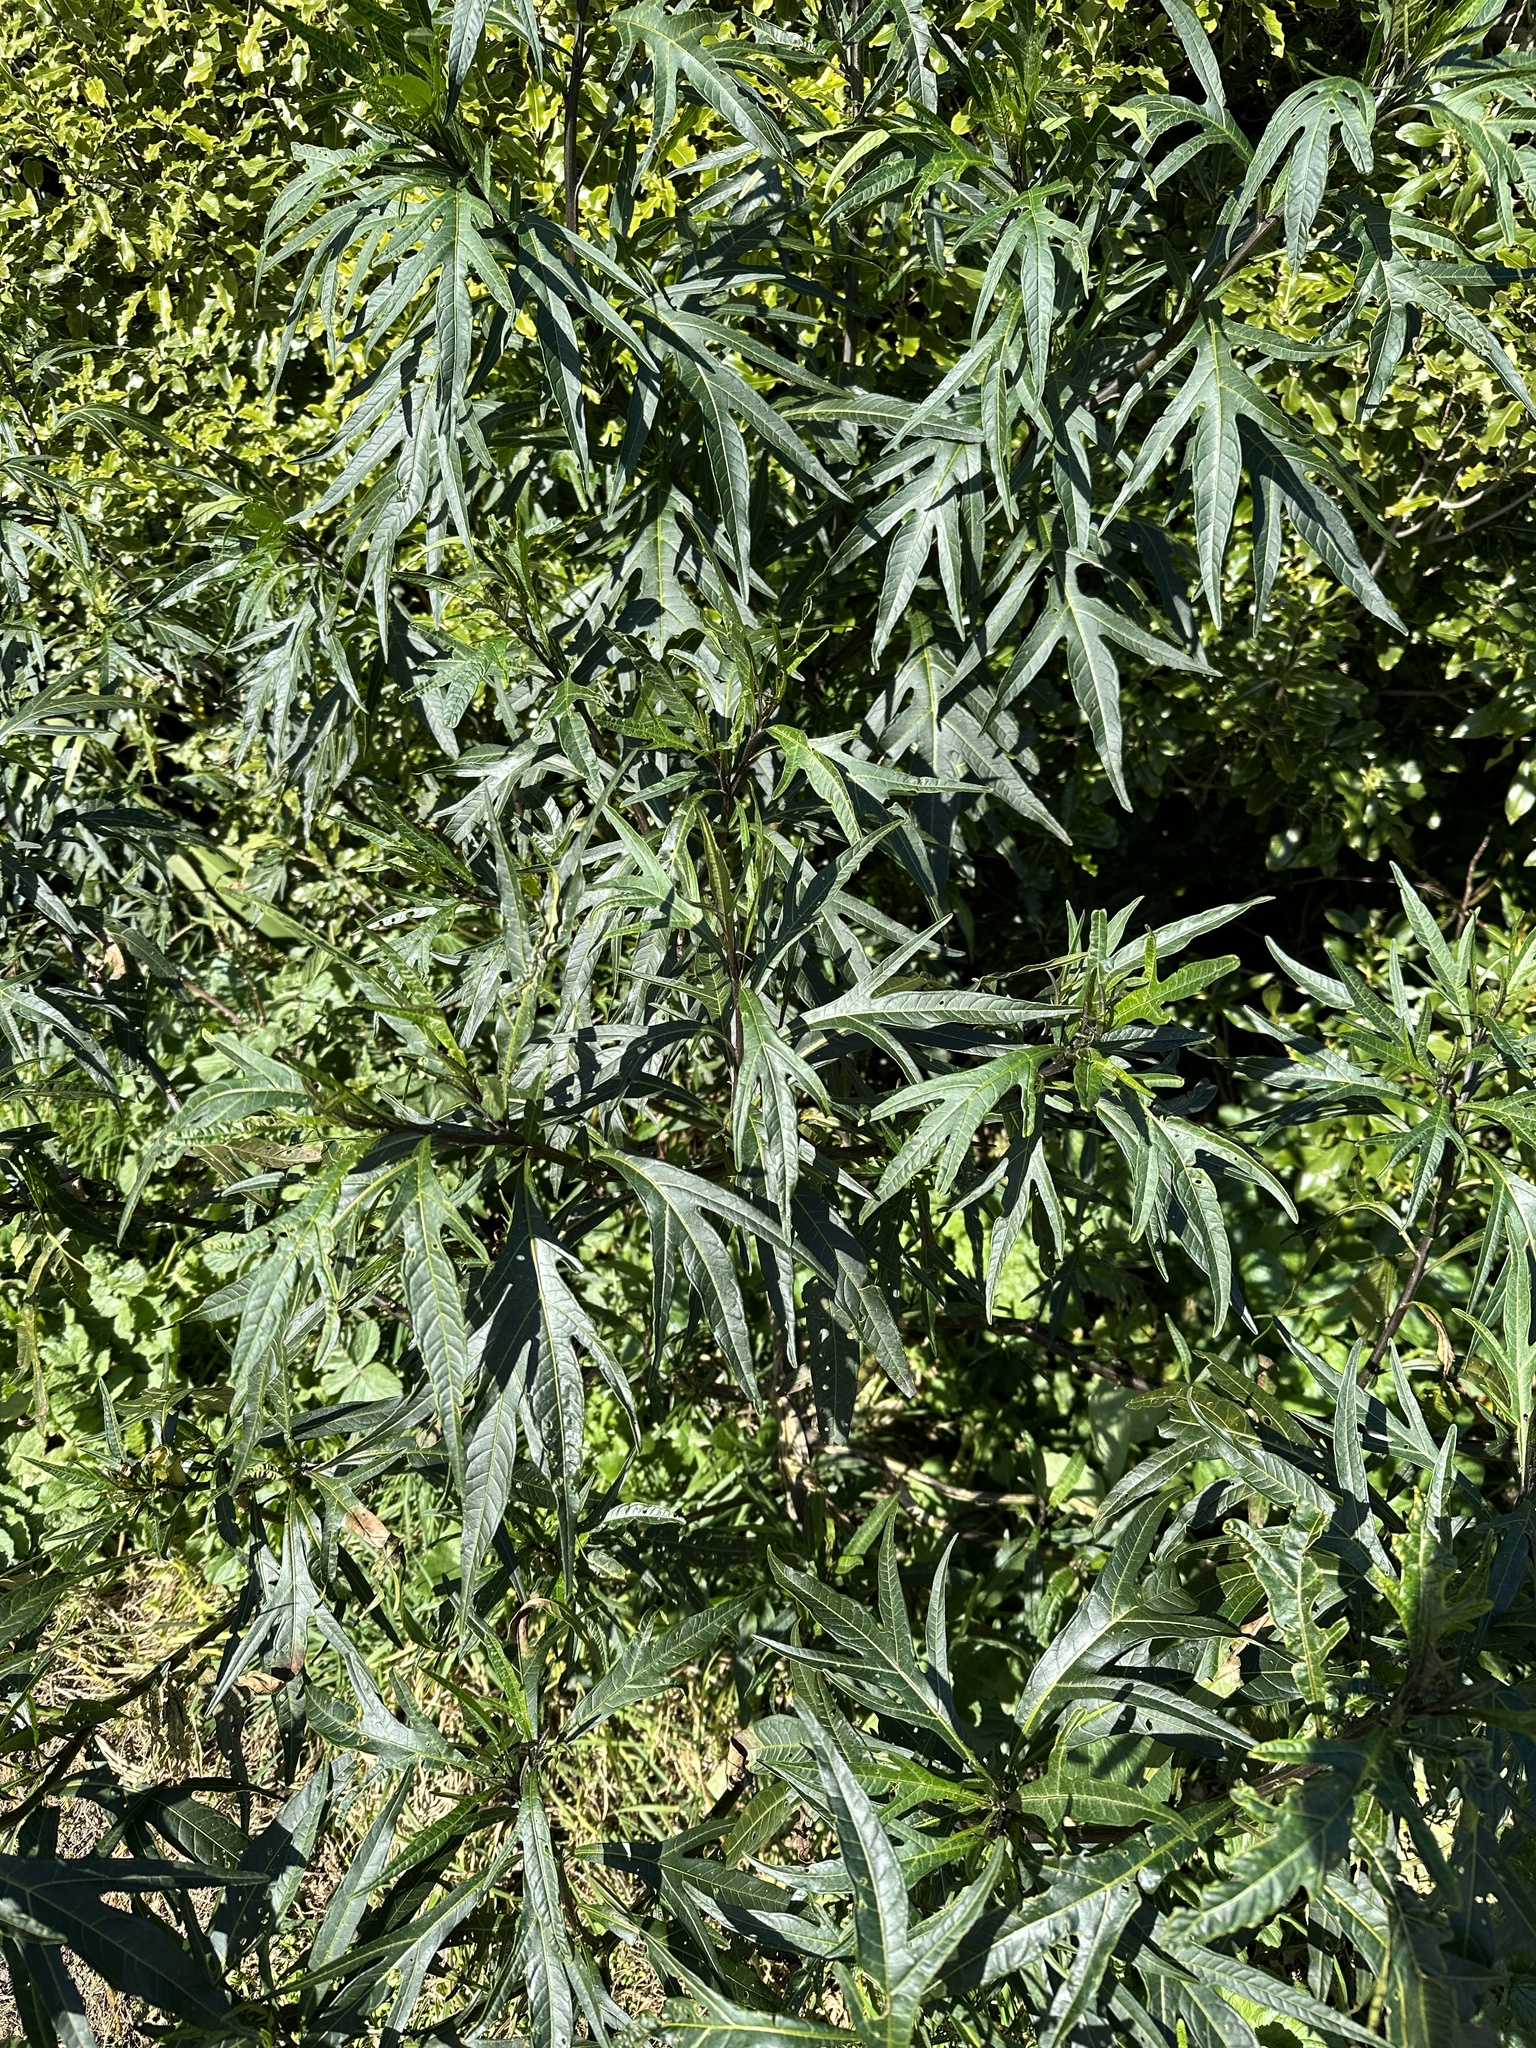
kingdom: Plantae
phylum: Tracheophyta
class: Magnoliopsida
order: Solanales
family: Solanaceae
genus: Solanum
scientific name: Solanum laciniatum
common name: Kangaroo-apple
